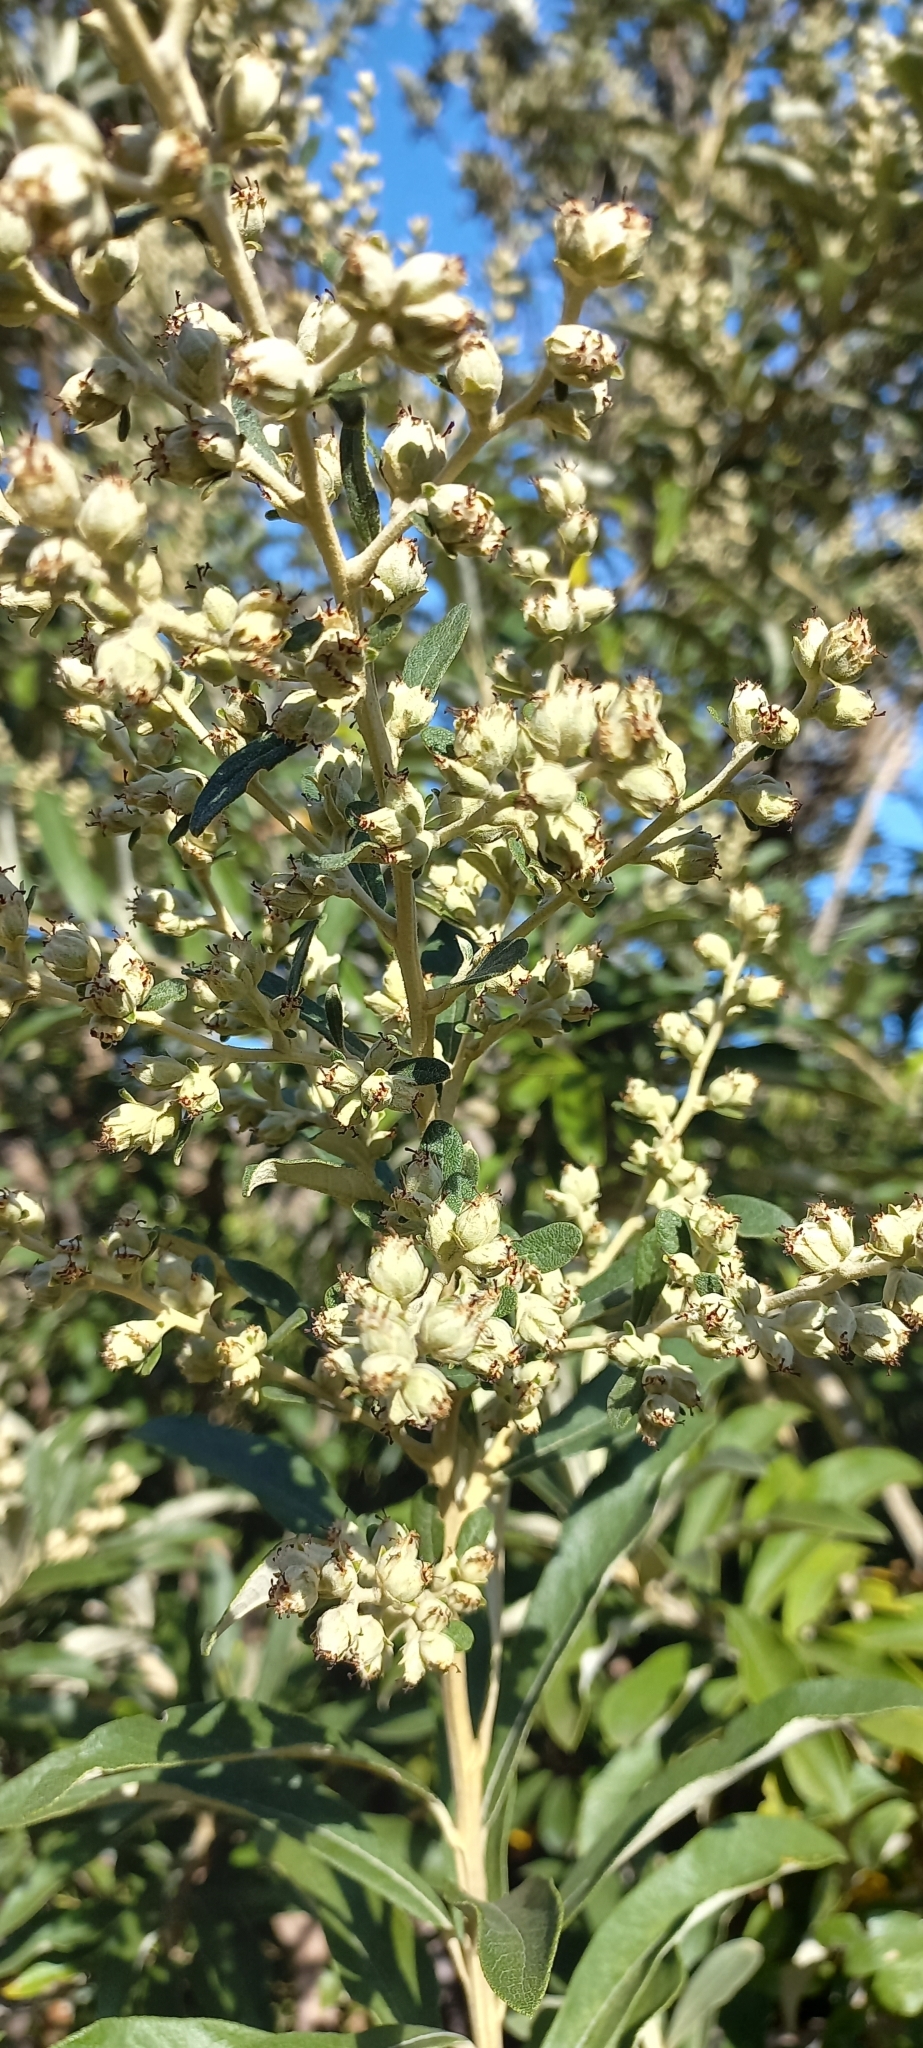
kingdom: Plantae
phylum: Tracheophyta
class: Magnoliopsida
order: Asterales
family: Asteraceae
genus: Tarchonanthus
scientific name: Tarchonanthus littoralis
